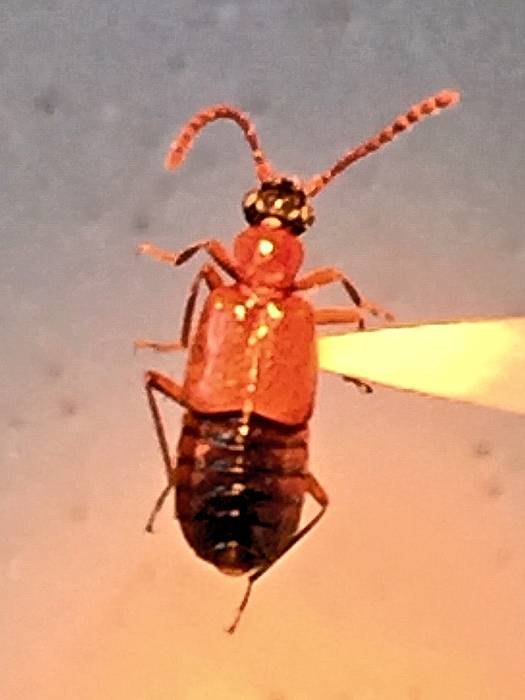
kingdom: Animalia
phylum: Arthropoda
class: Insecta
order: Coleoptera
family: Staphylinidae
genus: Deleaster
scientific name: Deleaster dichrous
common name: Rove beetle
